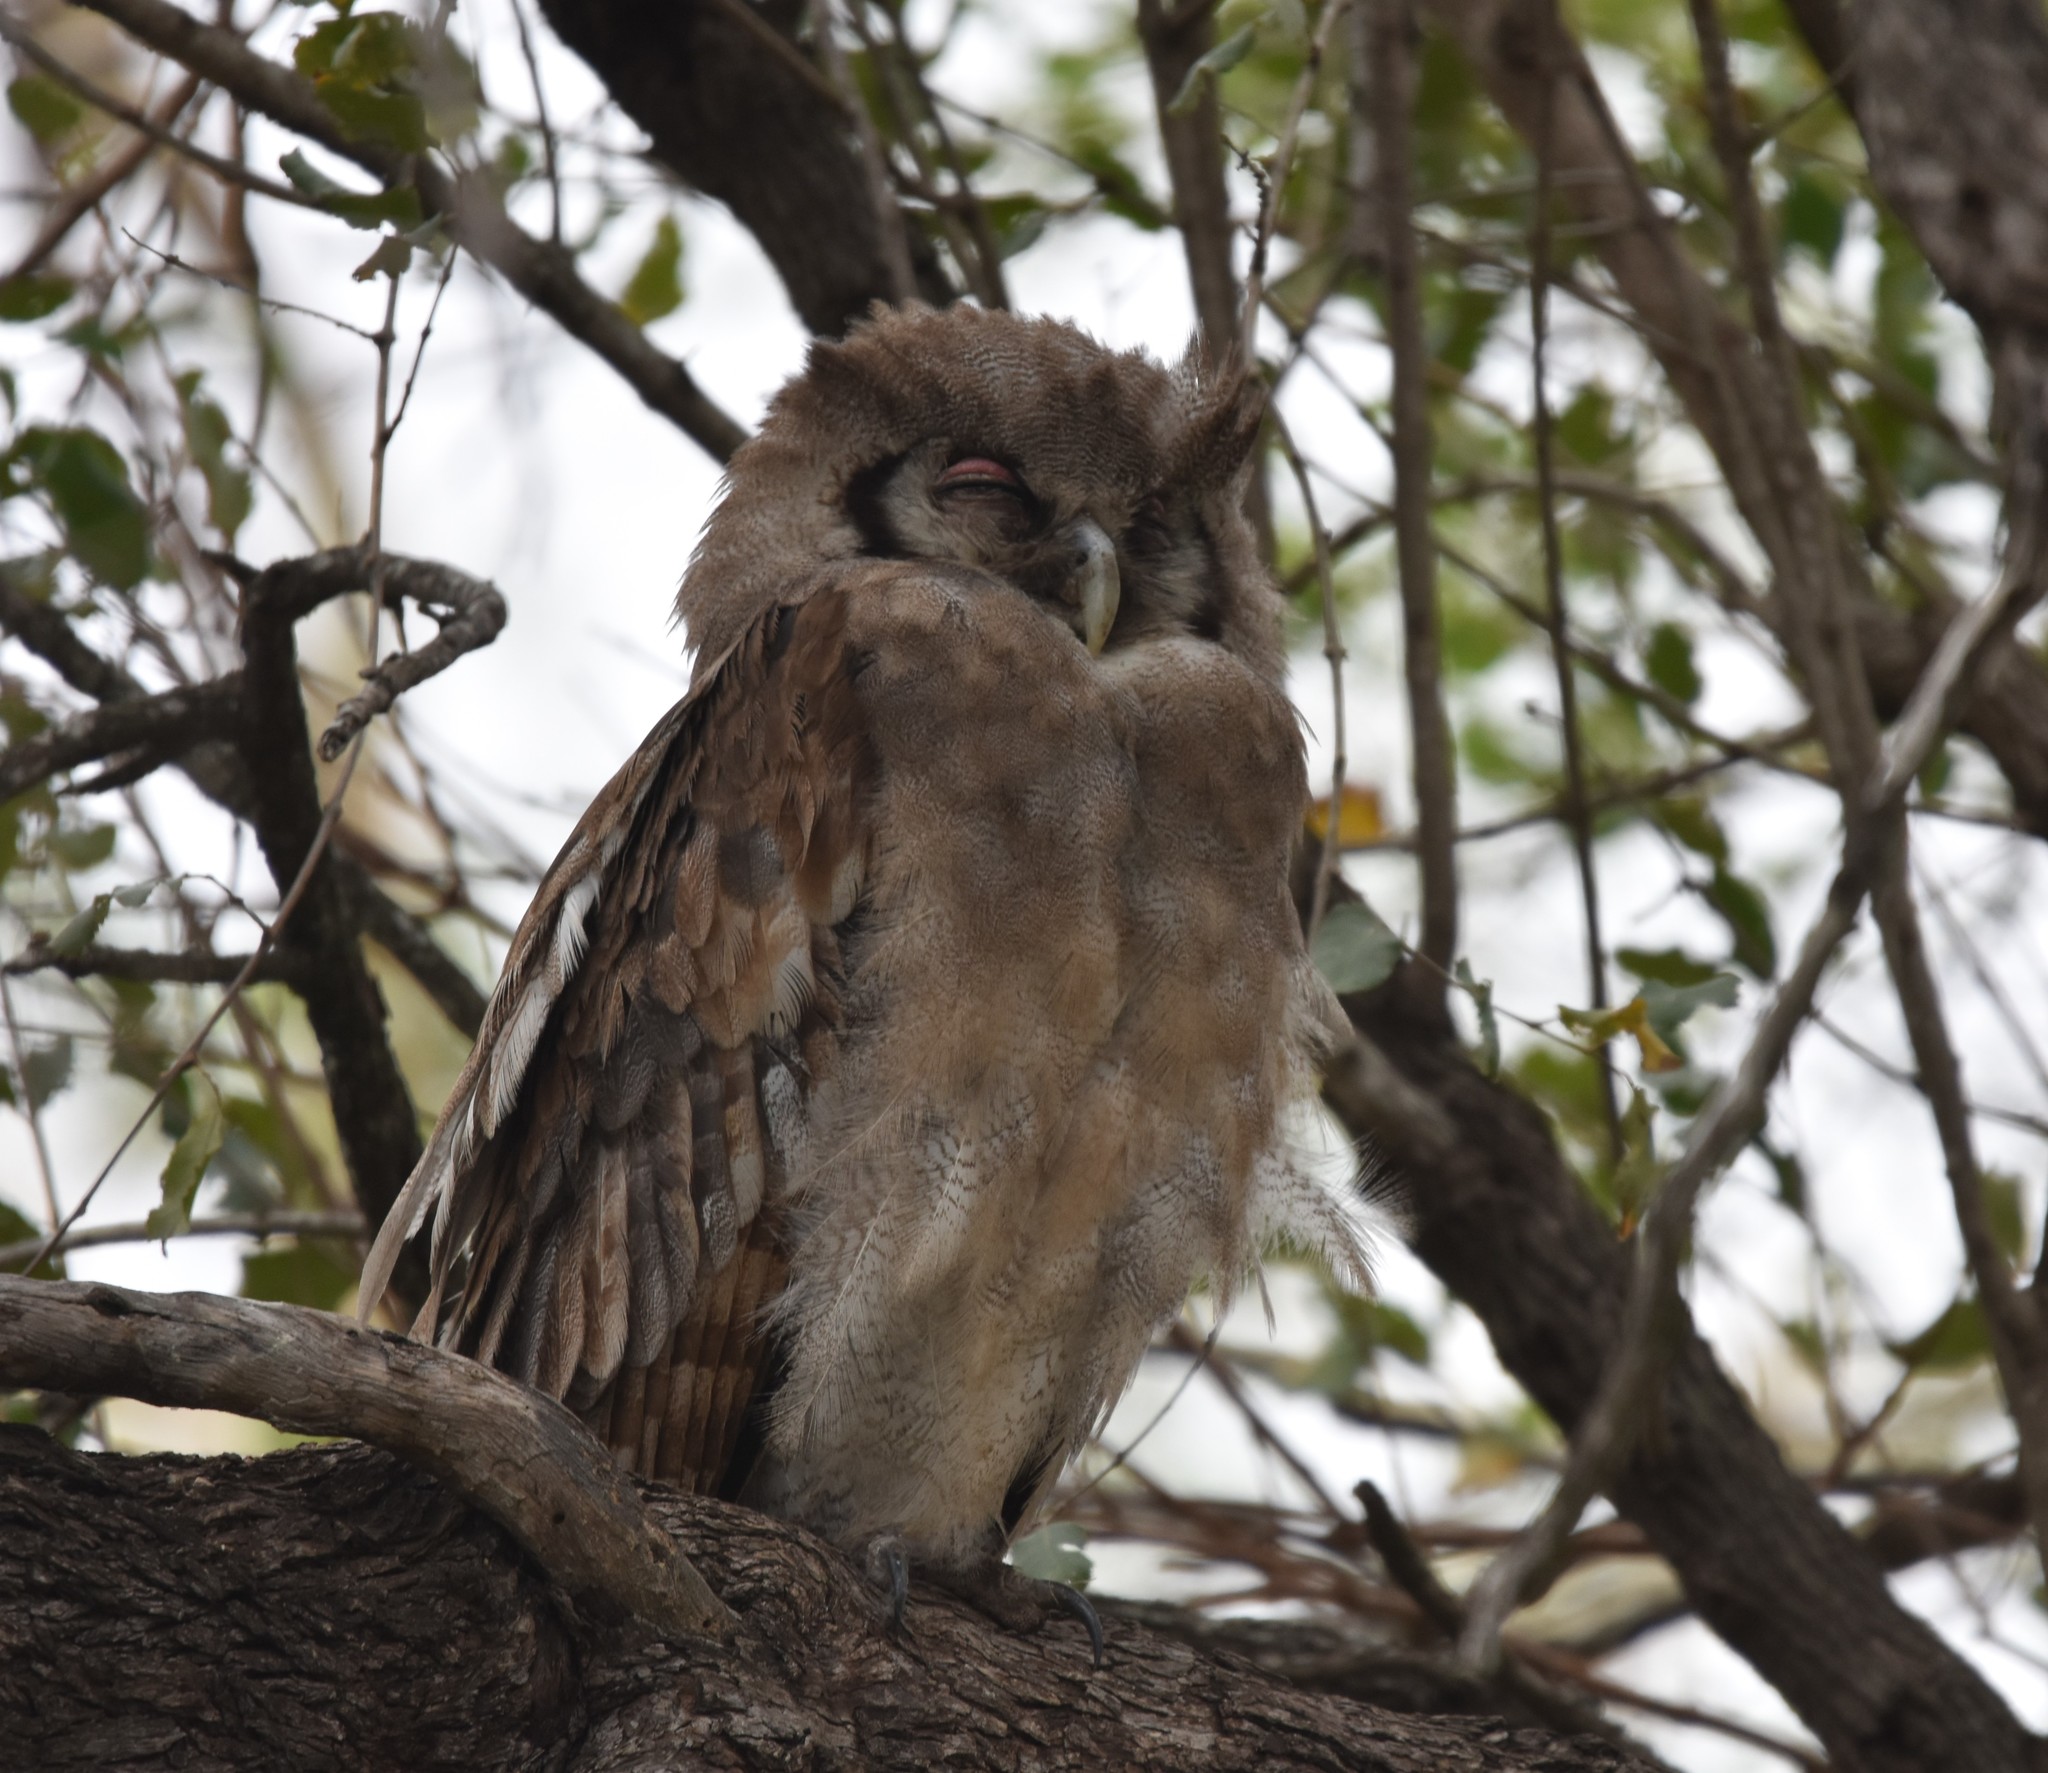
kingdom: Animalia
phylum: Chordata
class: Aves
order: Strigiformes
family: Strigidae
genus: Bubo
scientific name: Bubo lacteus
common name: Verreaux's eagle-owl
